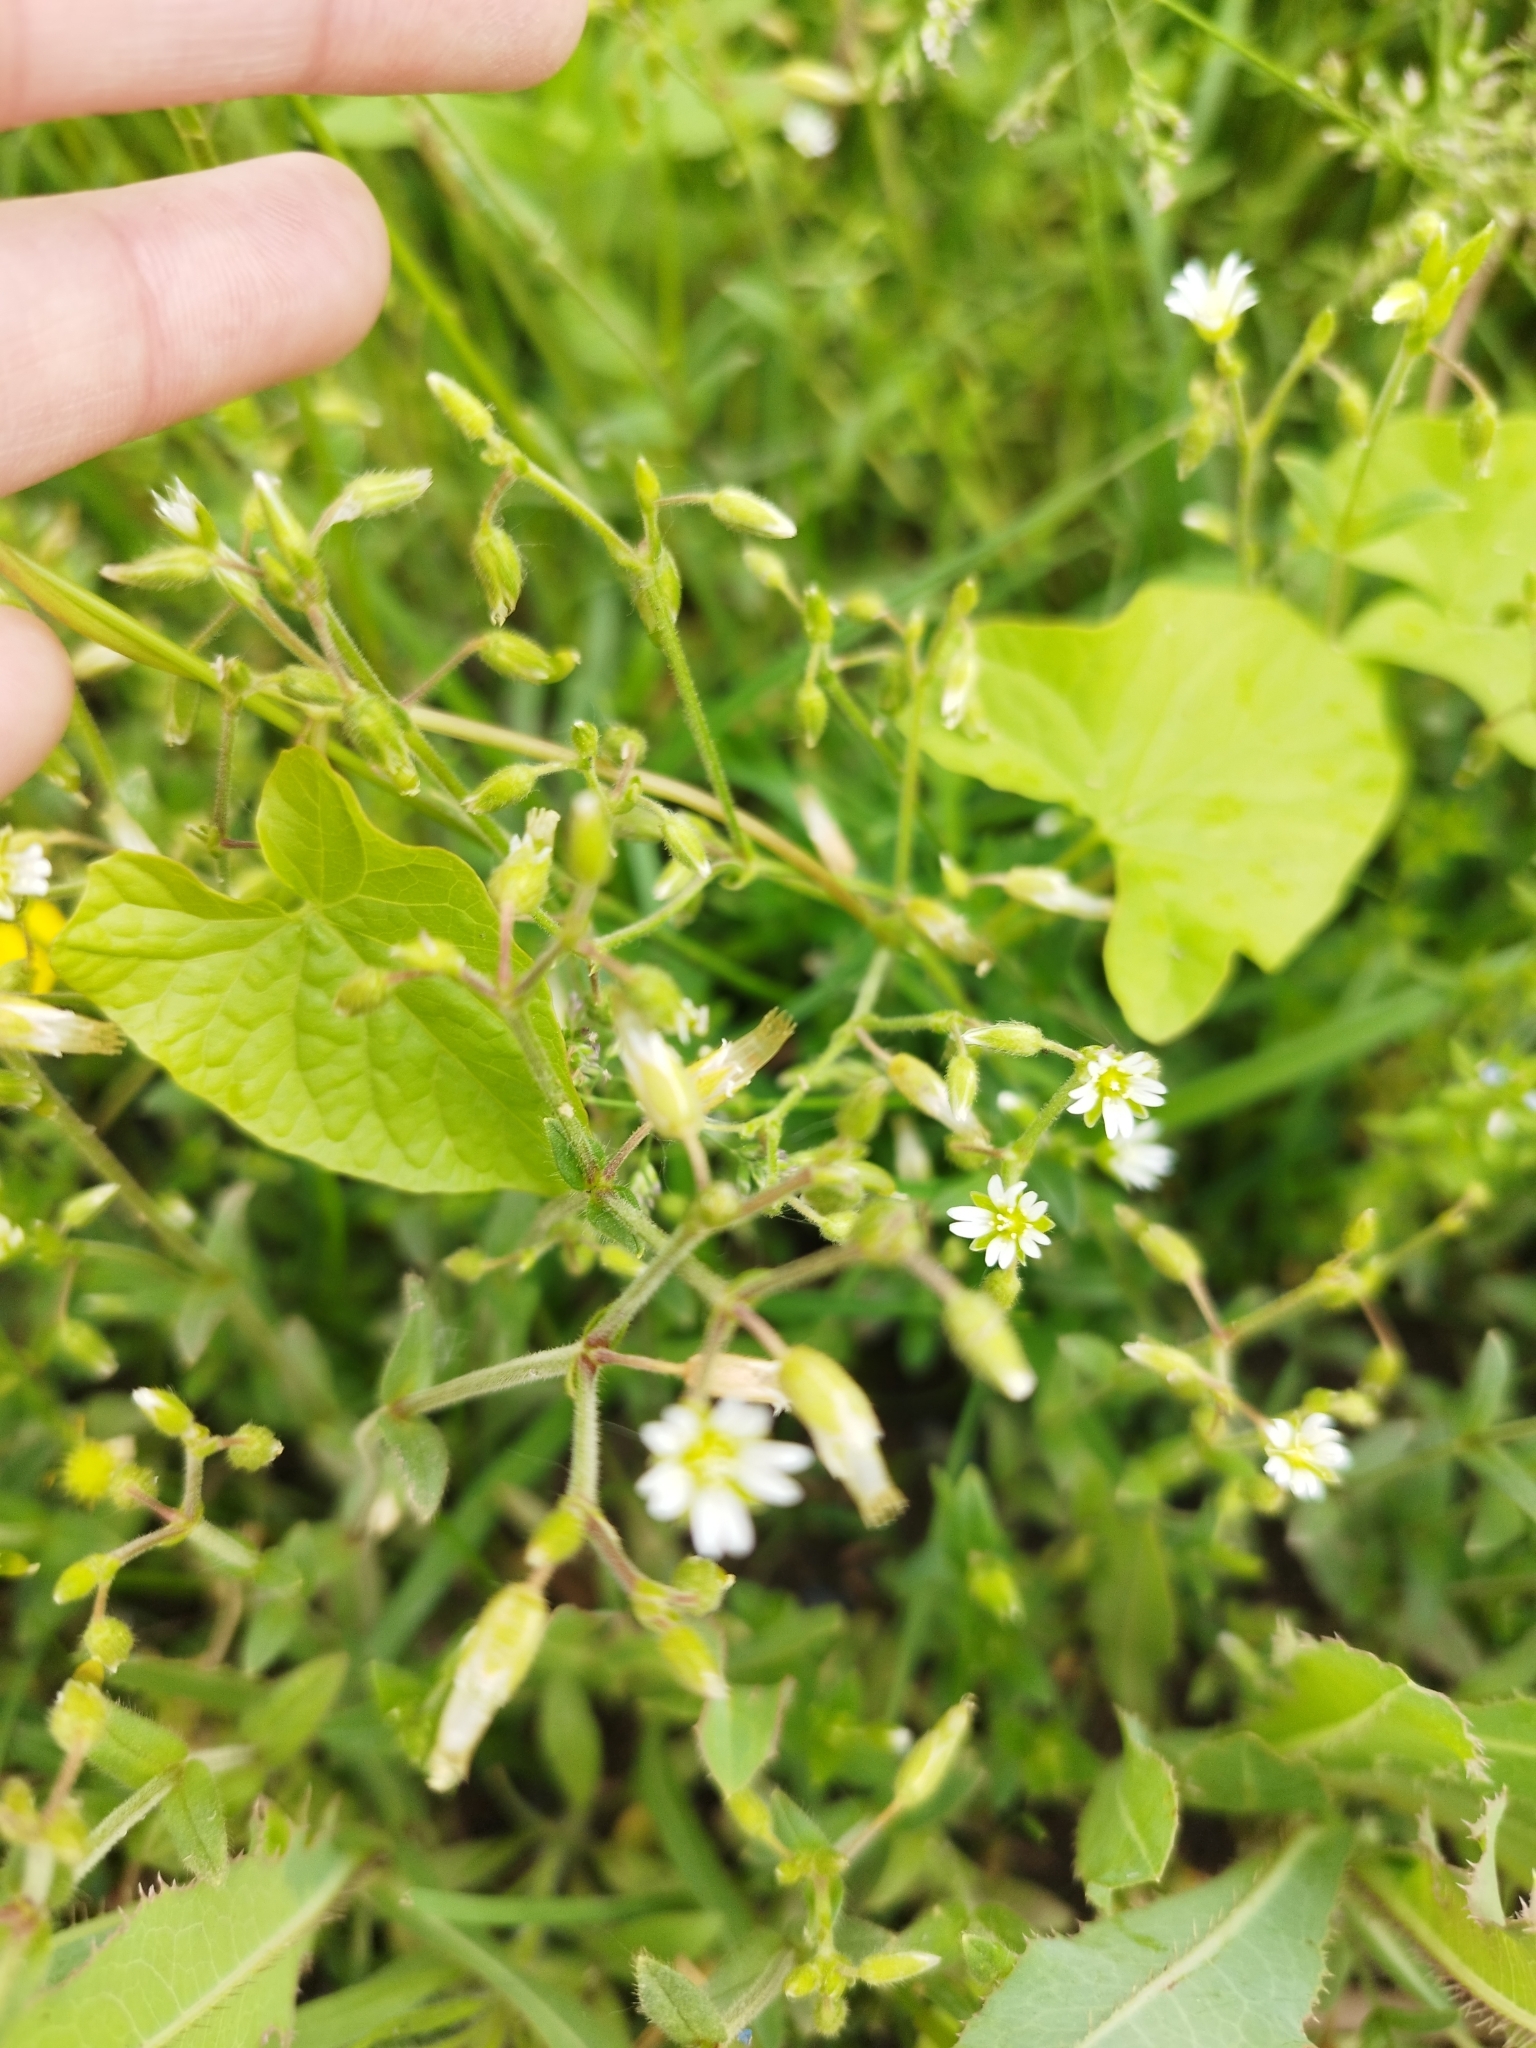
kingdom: Plantae
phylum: Tracheophyta
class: Magnoliopsida
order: Caryophyllales
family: Caryophyllaceae
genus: Cerastium
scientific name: Cerastium holosteoides
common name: Big chickweed
